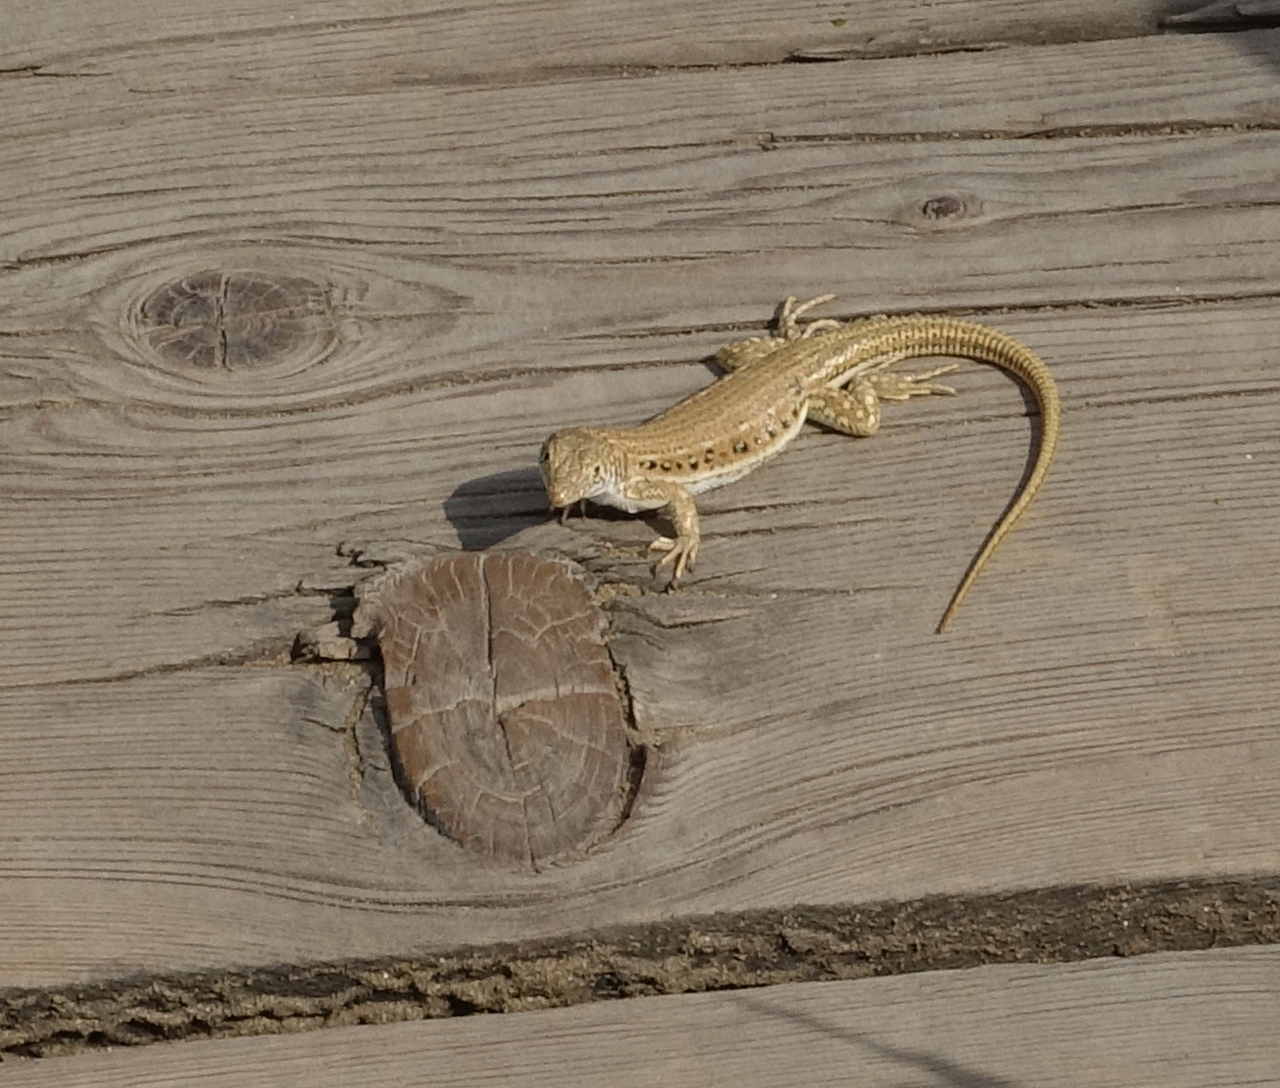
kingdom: Animalia
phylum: Chordata
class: Squamata
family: Lacertidae
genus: Eremias
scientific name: Eremias velox
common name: Central asian racerunner
